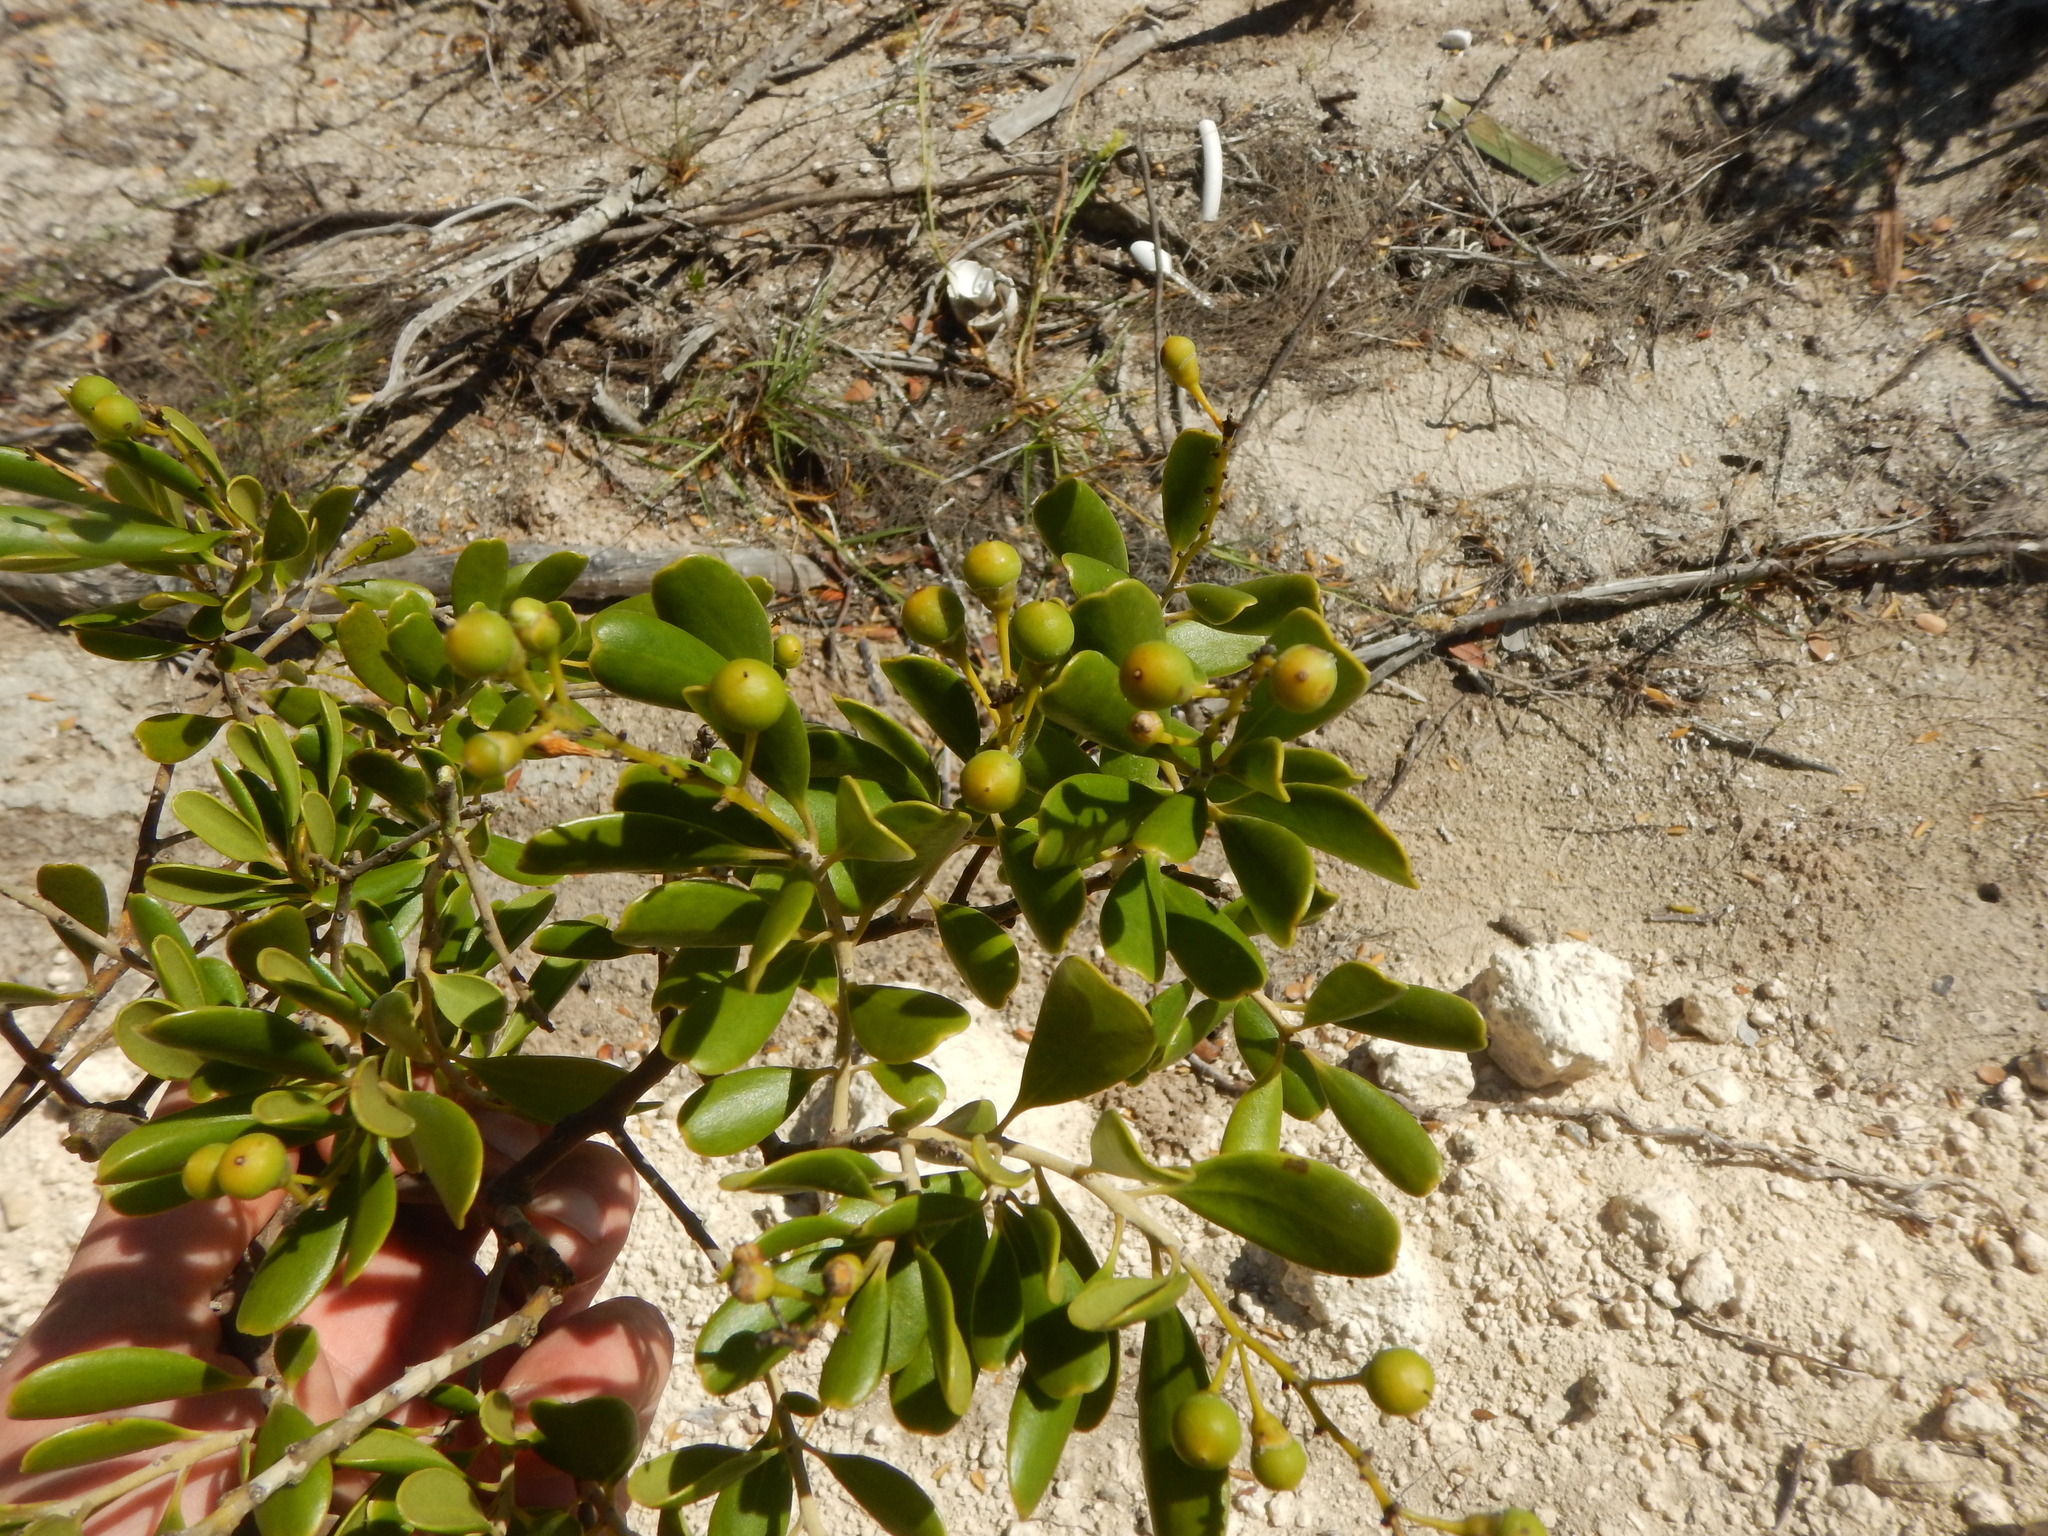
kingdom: Plantae
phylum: Tracheophyta
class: Magnoliopsida
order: Ericales
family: Primulaceae
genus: Jacquinia
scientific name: Jacquinia keyensis
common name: Joebush
